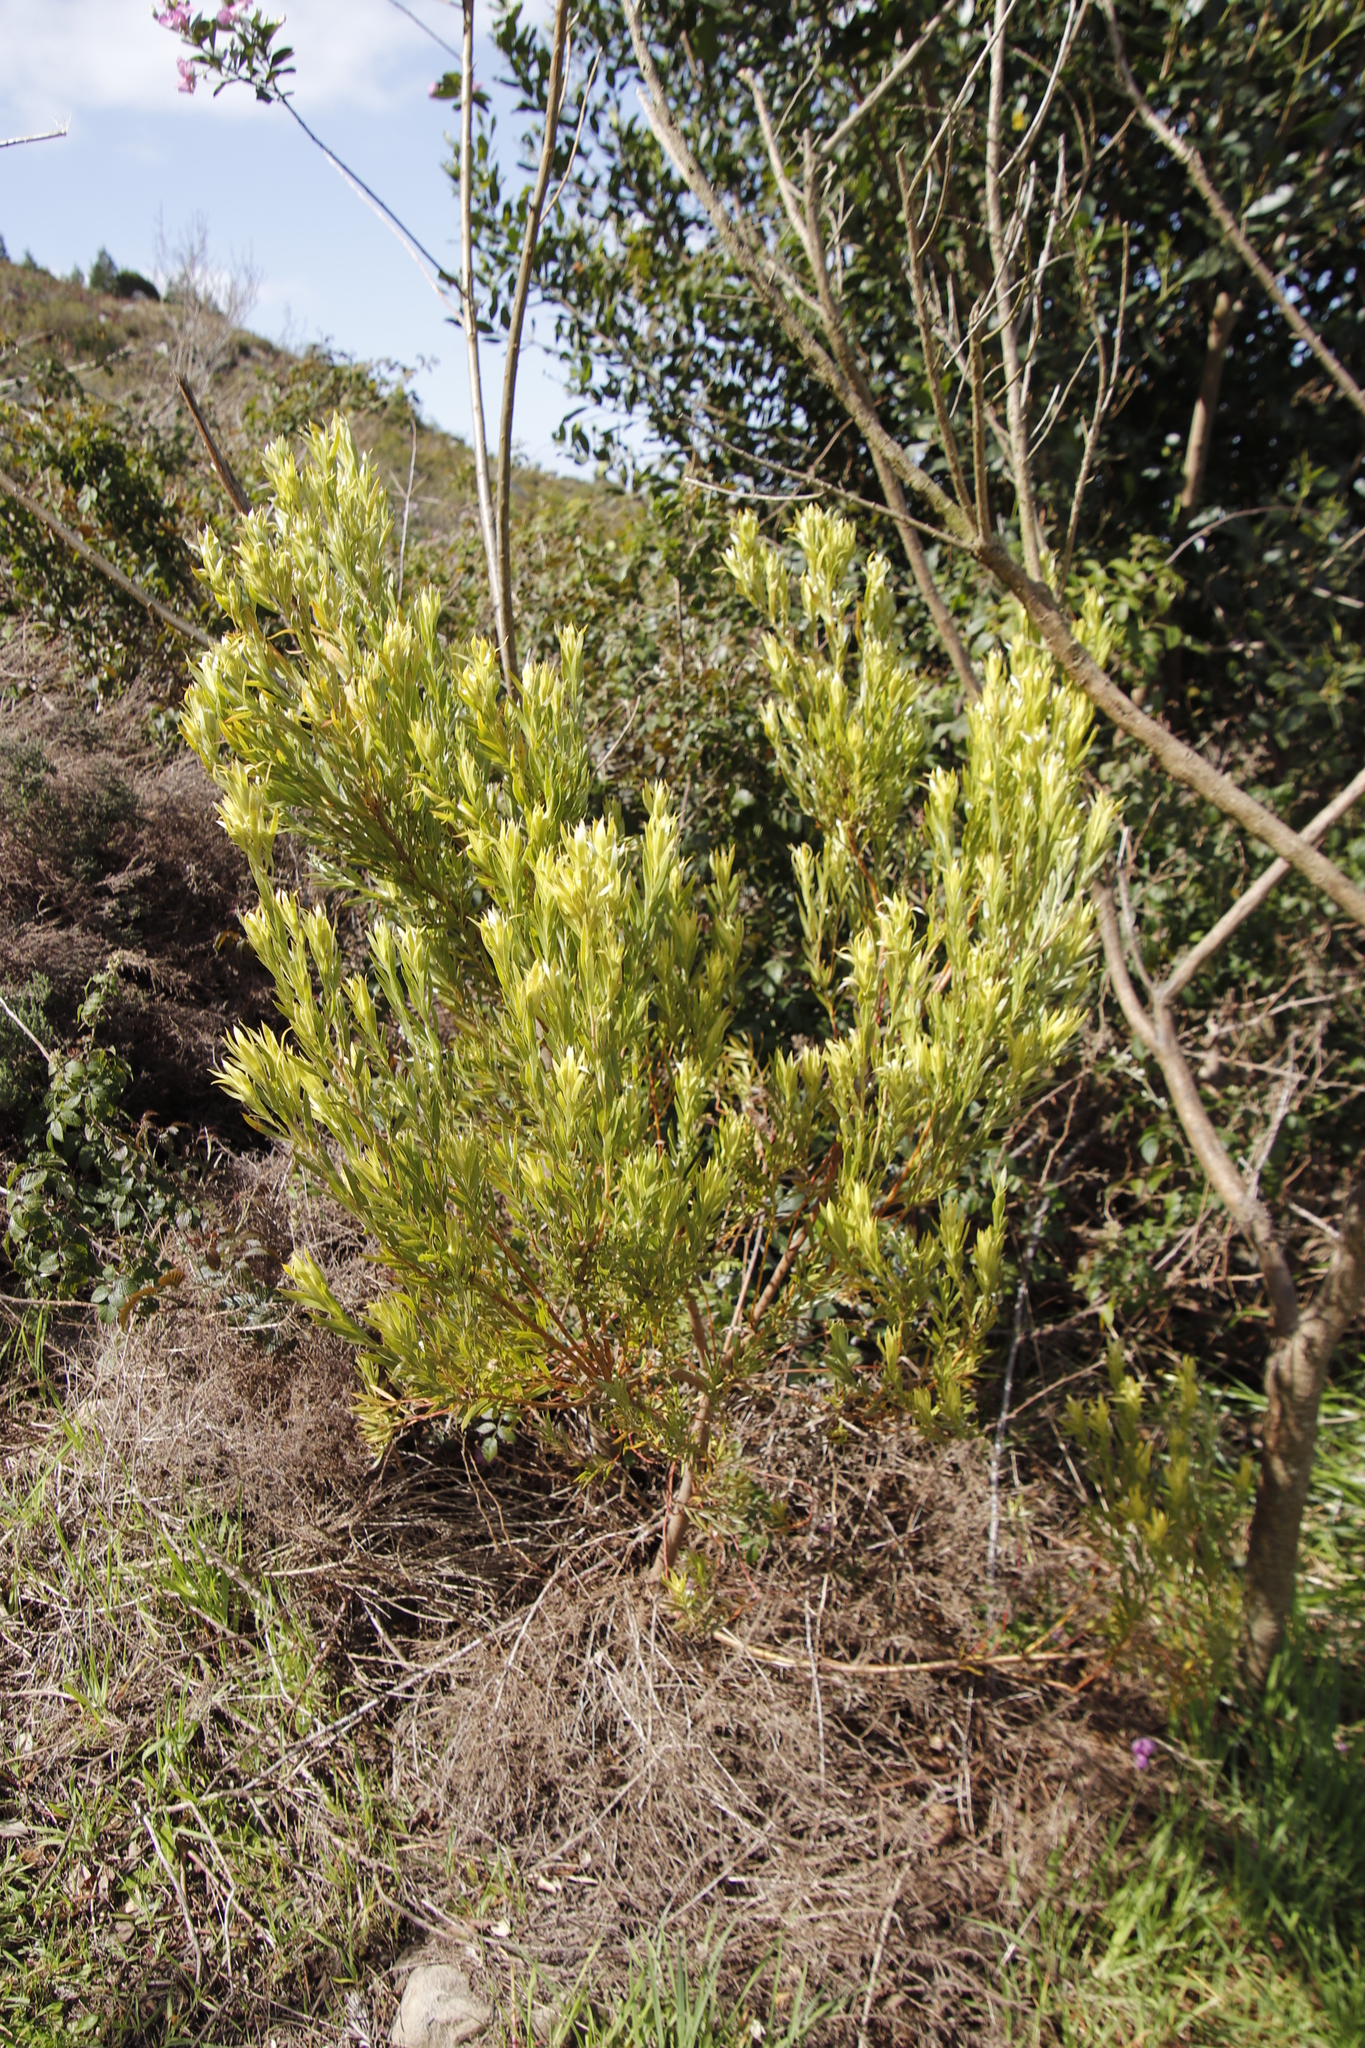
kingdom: Plantae
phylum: Tracheophyta
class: Magnoliopsida
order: Proteales
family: Proteaceae
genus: Leucadendron
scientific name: Leucadendron xanthoconus
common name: Sickle-leaf conebush
